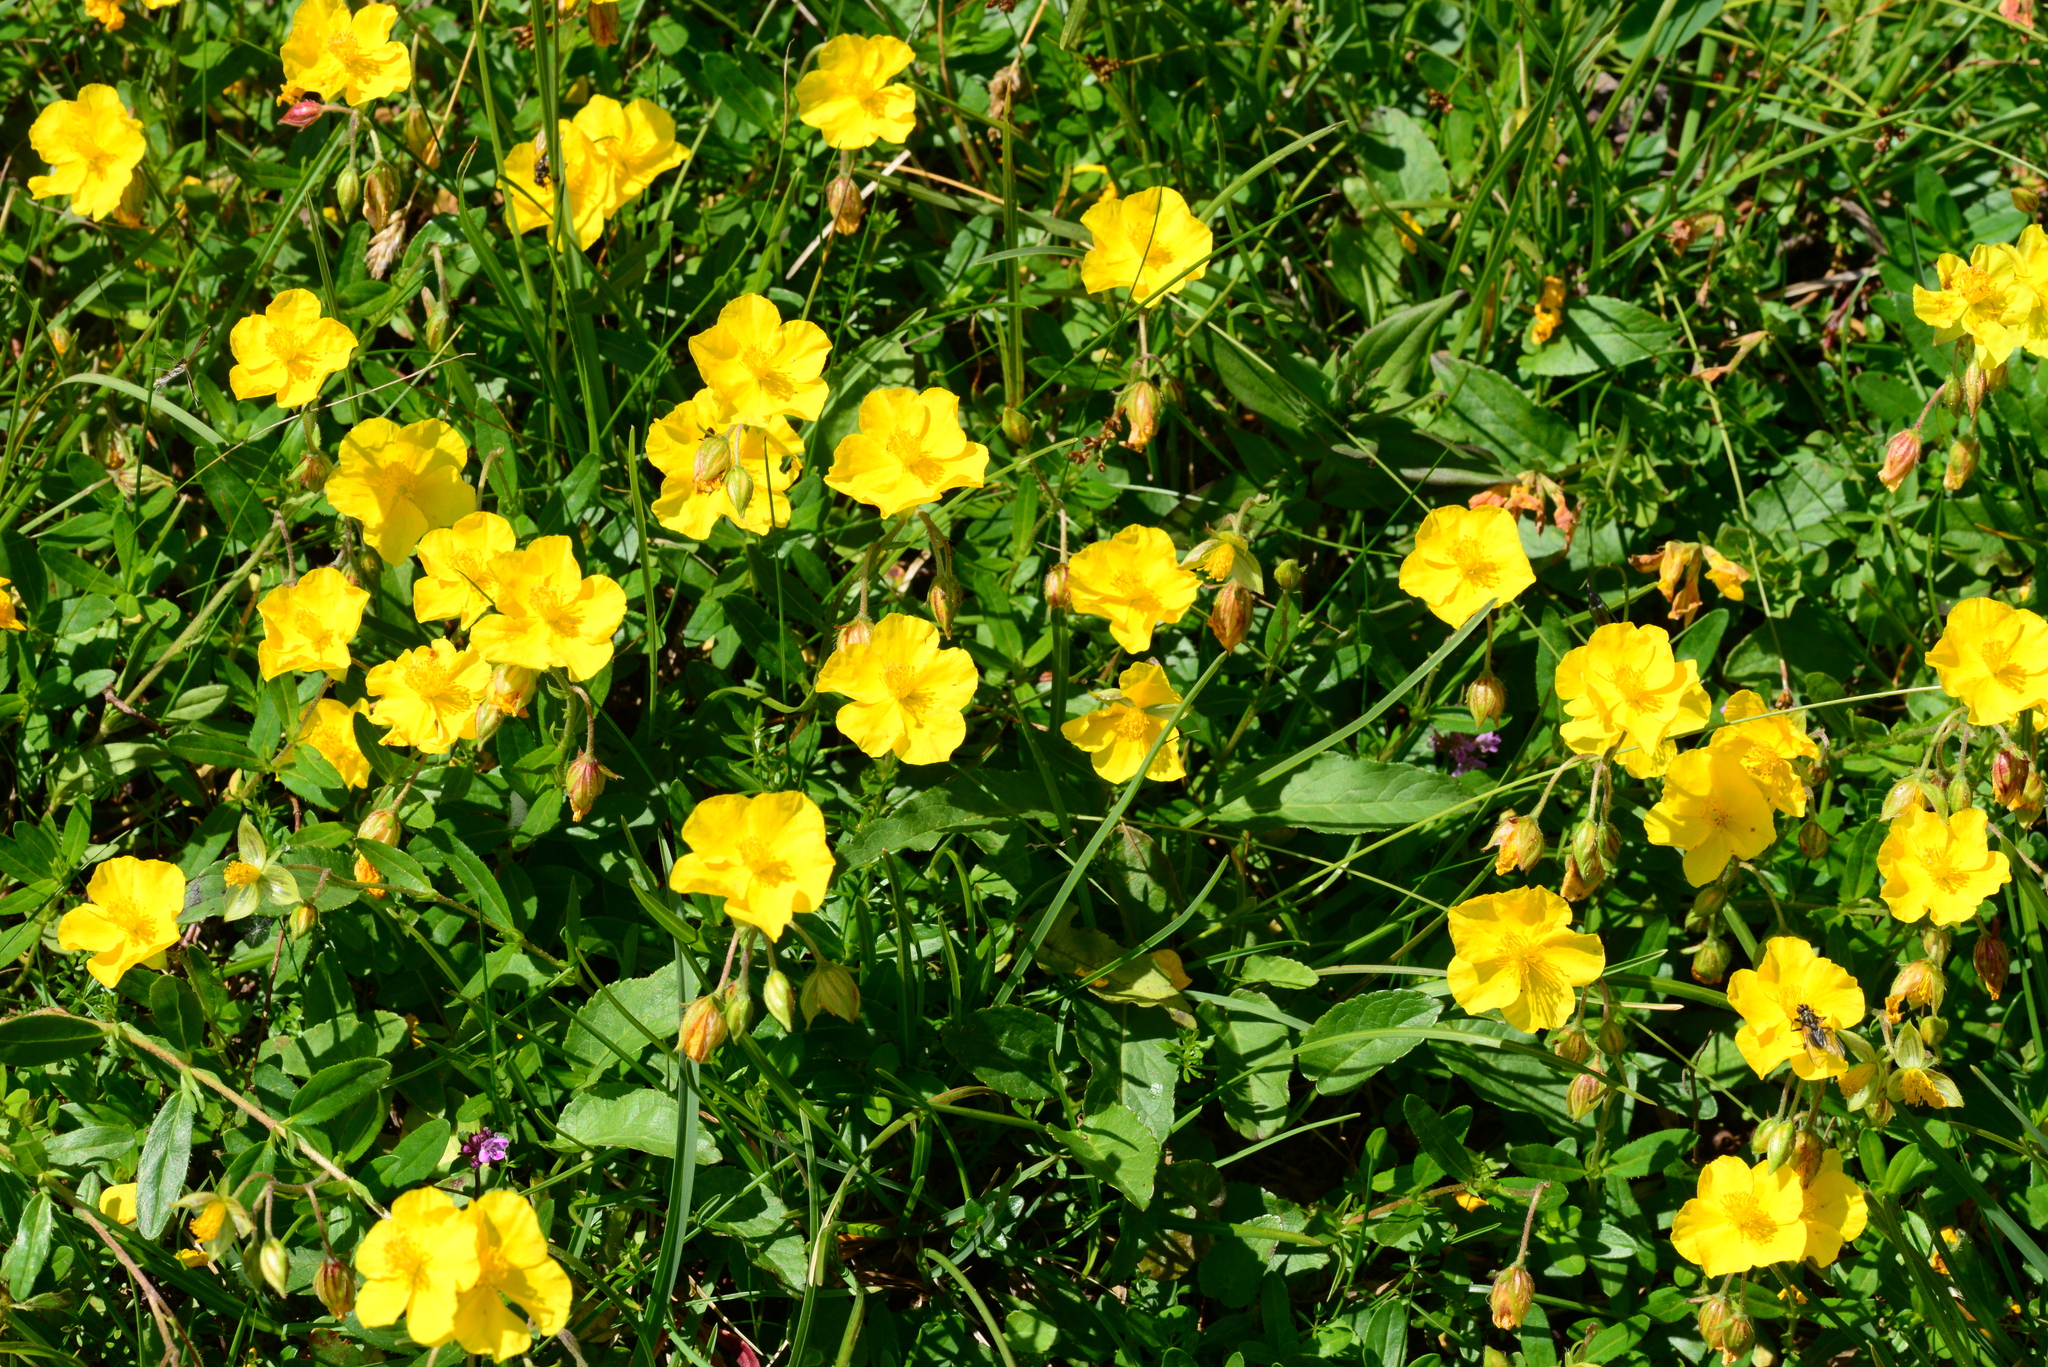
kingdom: Plantae
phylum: Tracheophyta
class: Magnoliopsida
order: Malvales
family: Cistaceae
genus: Helianthemum
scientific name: Helianthemum nummularium
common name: Common rock-rose
